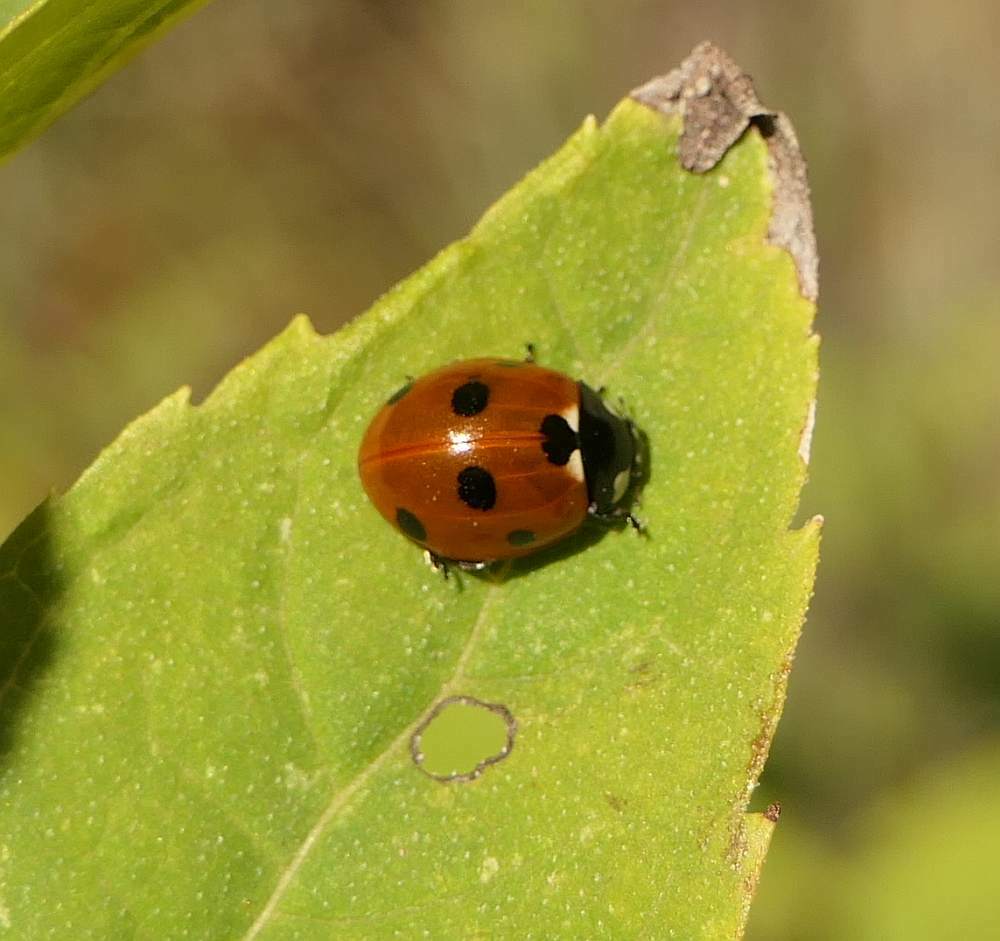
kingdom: Animalia
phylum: Arthropoda
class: Insecta
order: Coleoptera
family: Coccinellidae
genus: Coccinella
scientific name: Coccinella septempunctata
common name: Sevenspotted lady beetle
